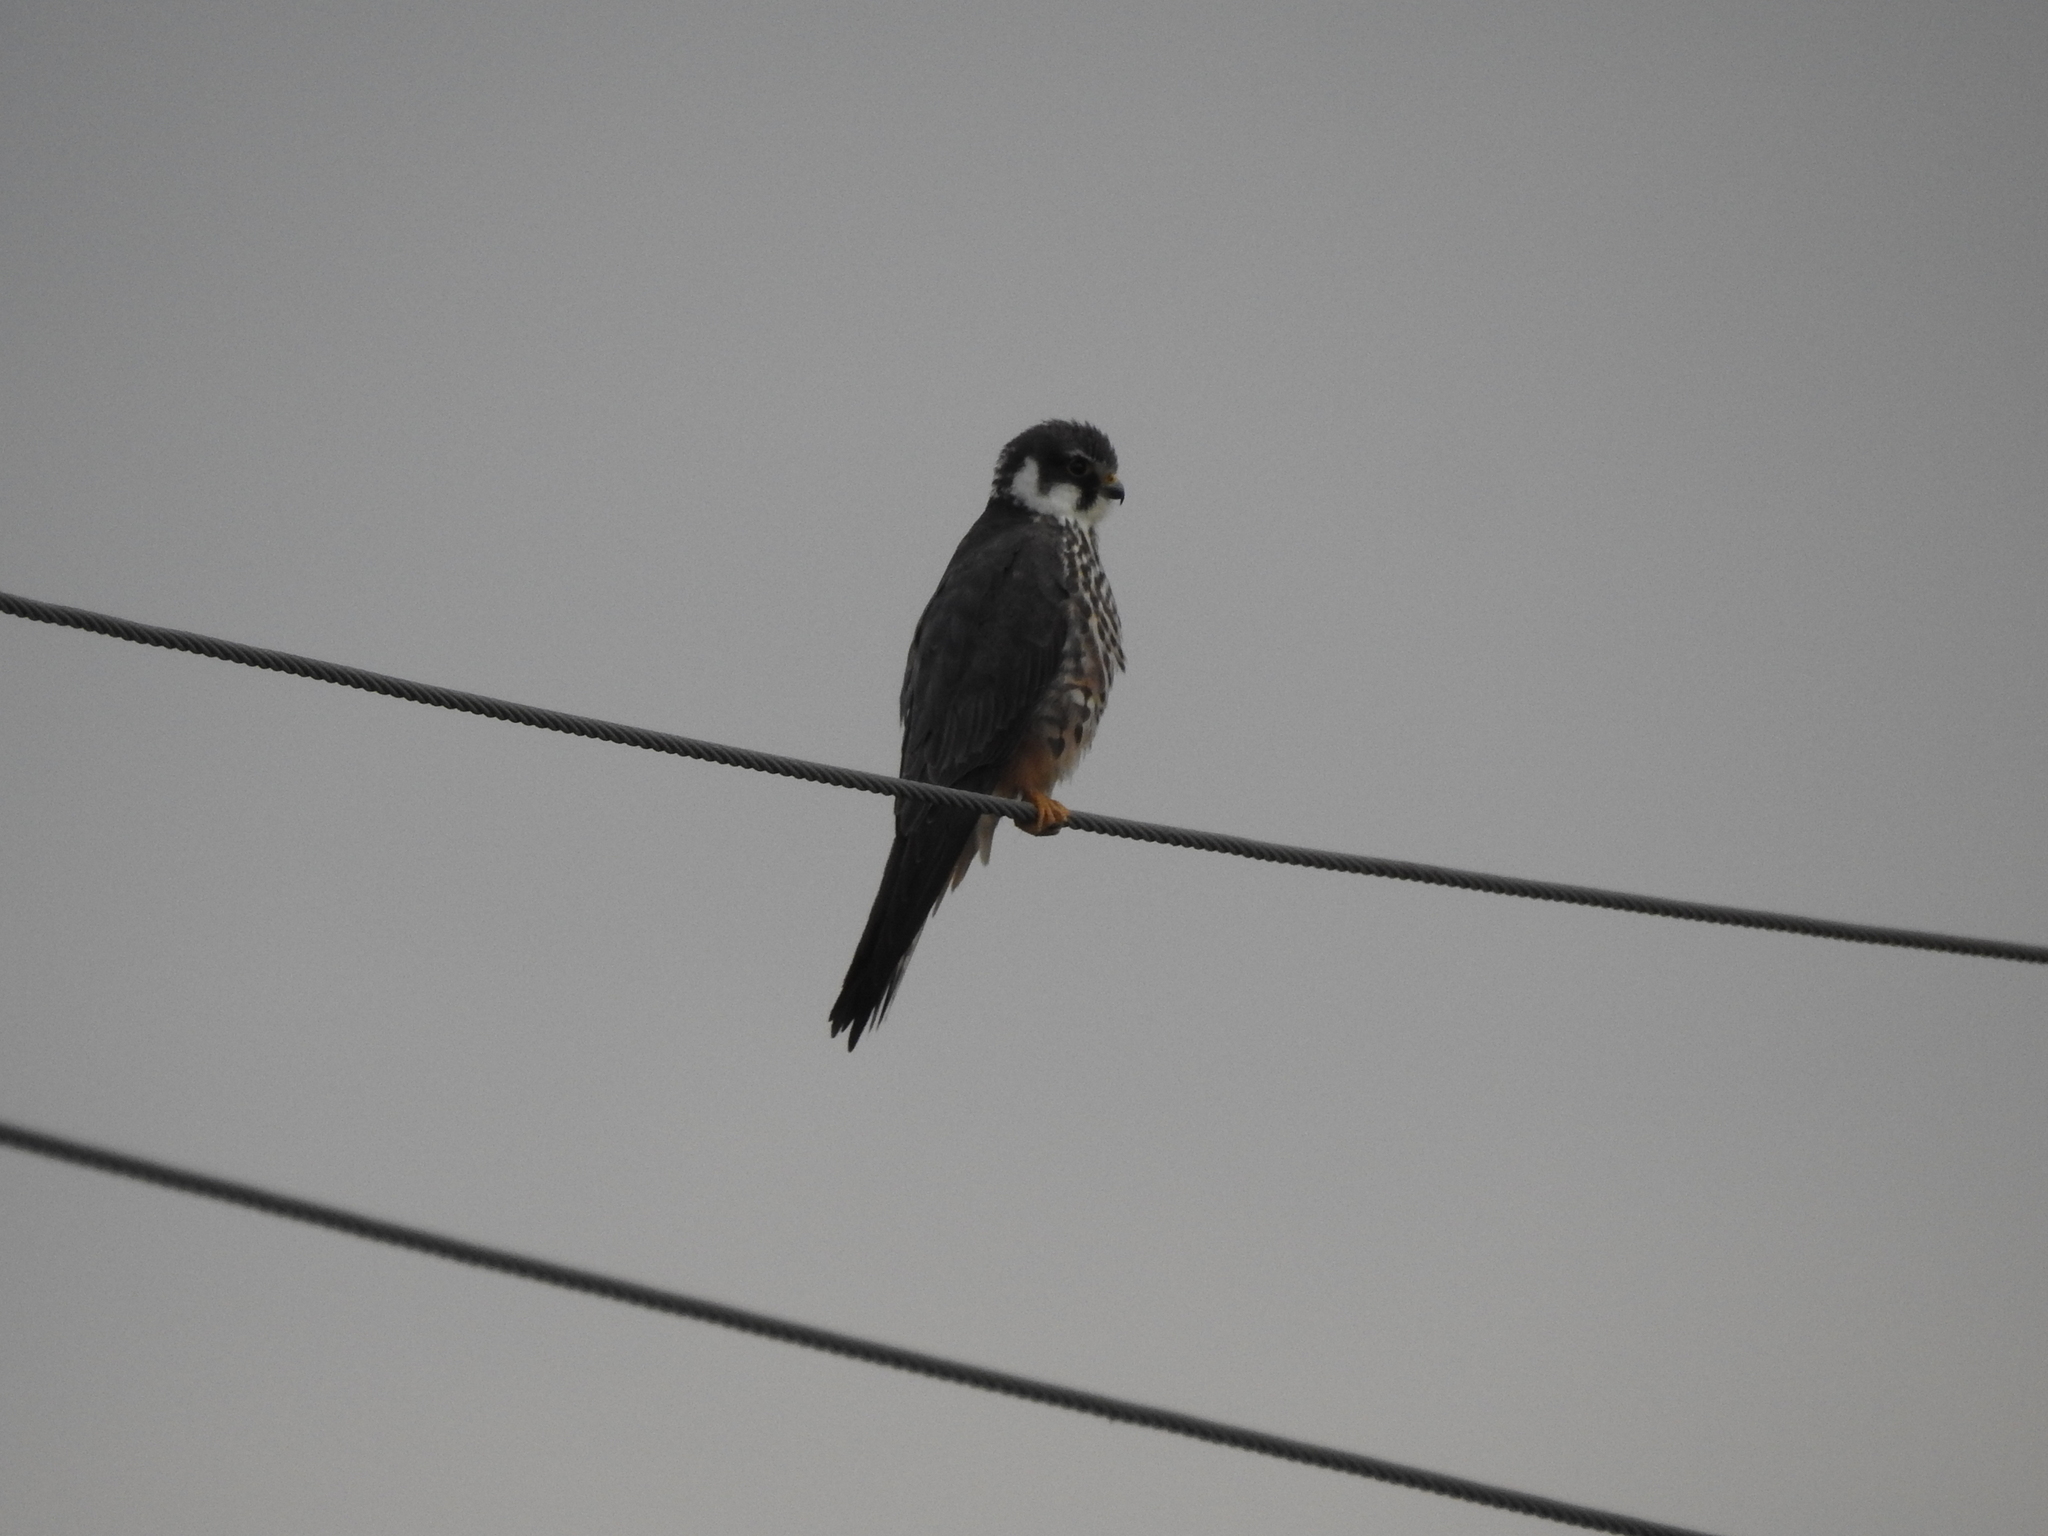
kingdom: Animalia
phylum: Chordata
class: Aves
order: Falconiformes
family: Falconidae
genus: Falco
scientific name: Falco subbuteo
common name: Eurasian hobby
